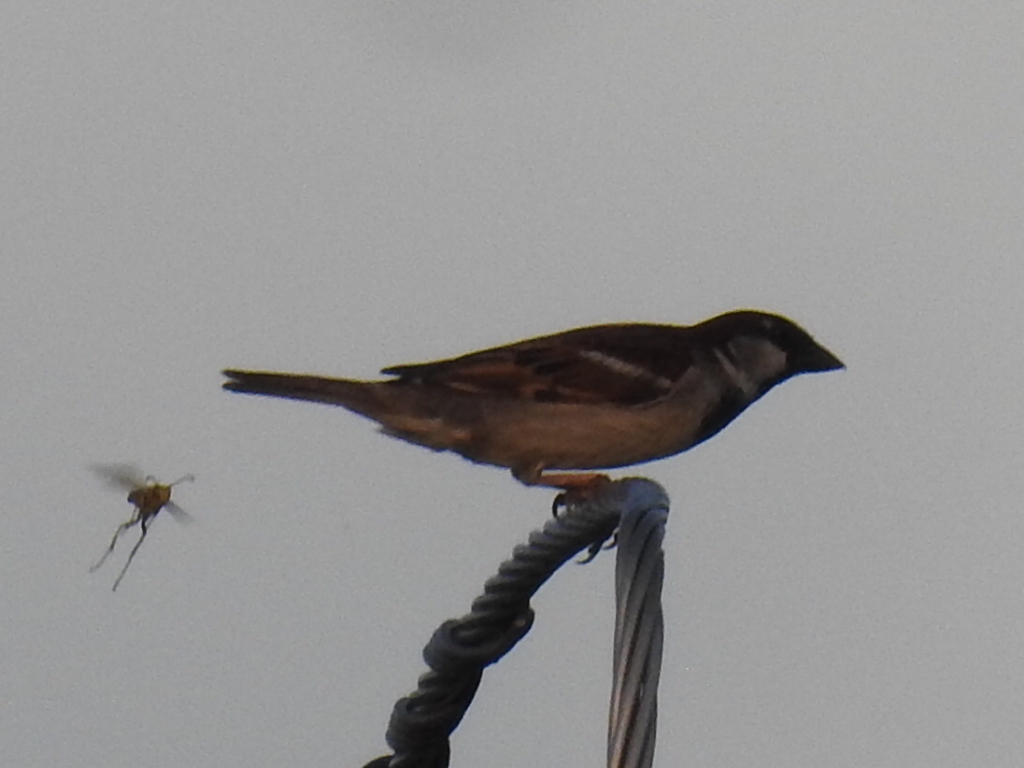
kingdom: Animalia
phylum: Chordata
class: Aves
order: Passeriformes
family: Passeridae
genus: Passer
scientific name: Passer domesticus
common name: House sparrow
